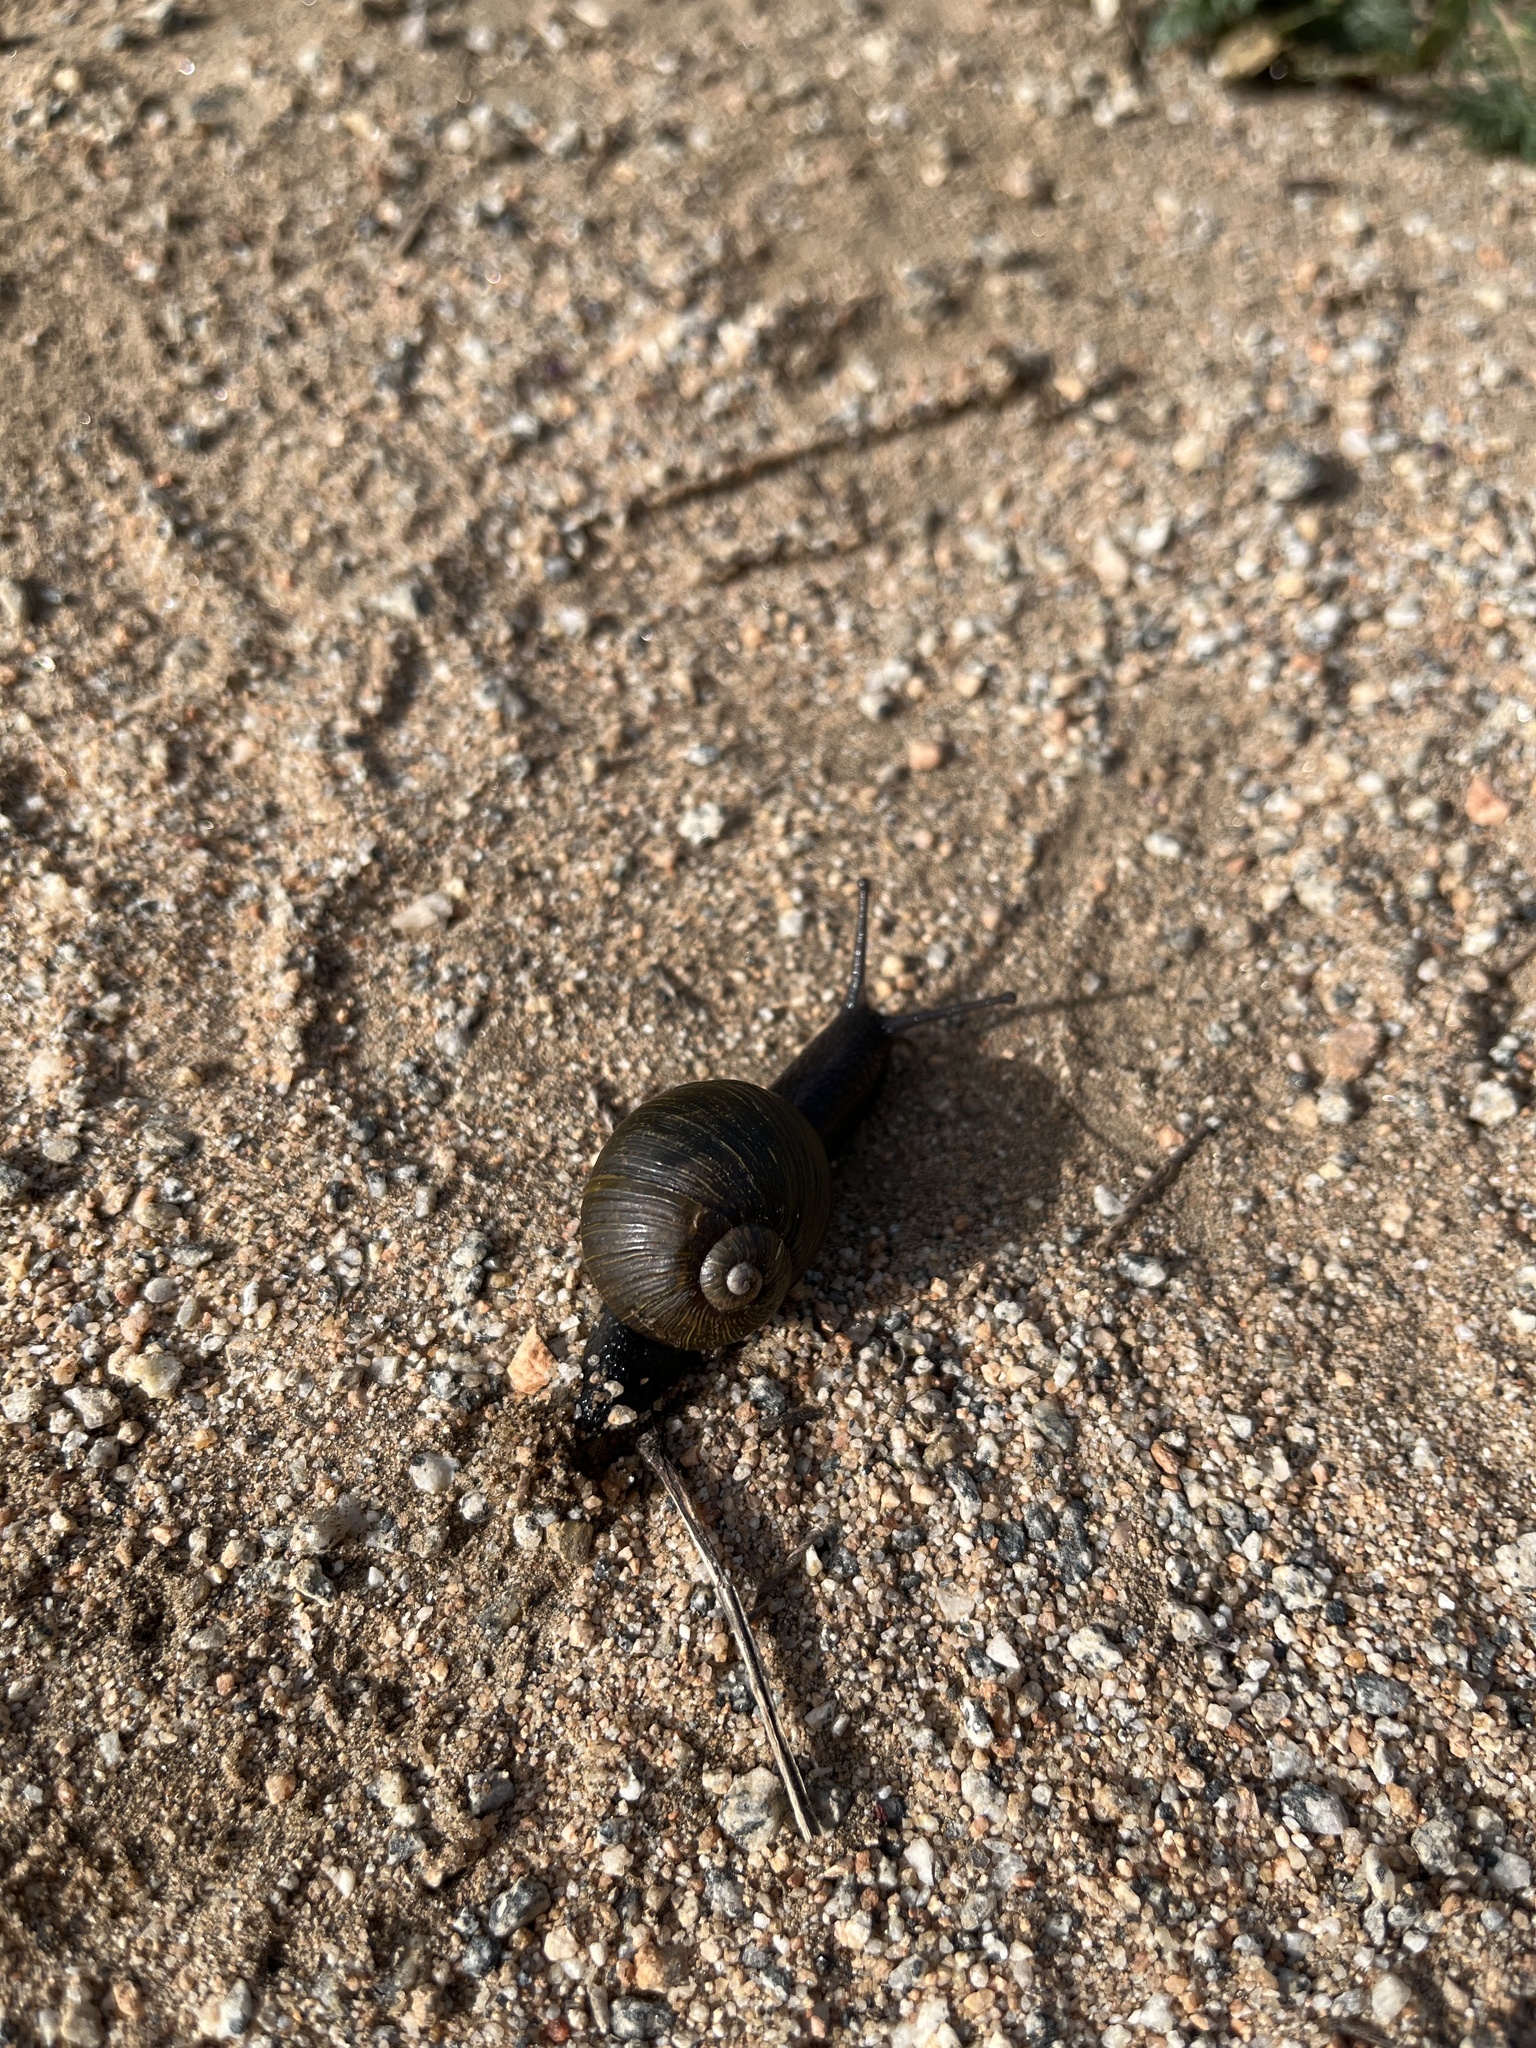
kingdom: Animalia
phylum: Mollusca
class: Gastropoda
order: Stylommatophora
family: Helicidae
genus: Cantareus
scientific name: Cantareus apertus
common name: Green gardensnail
